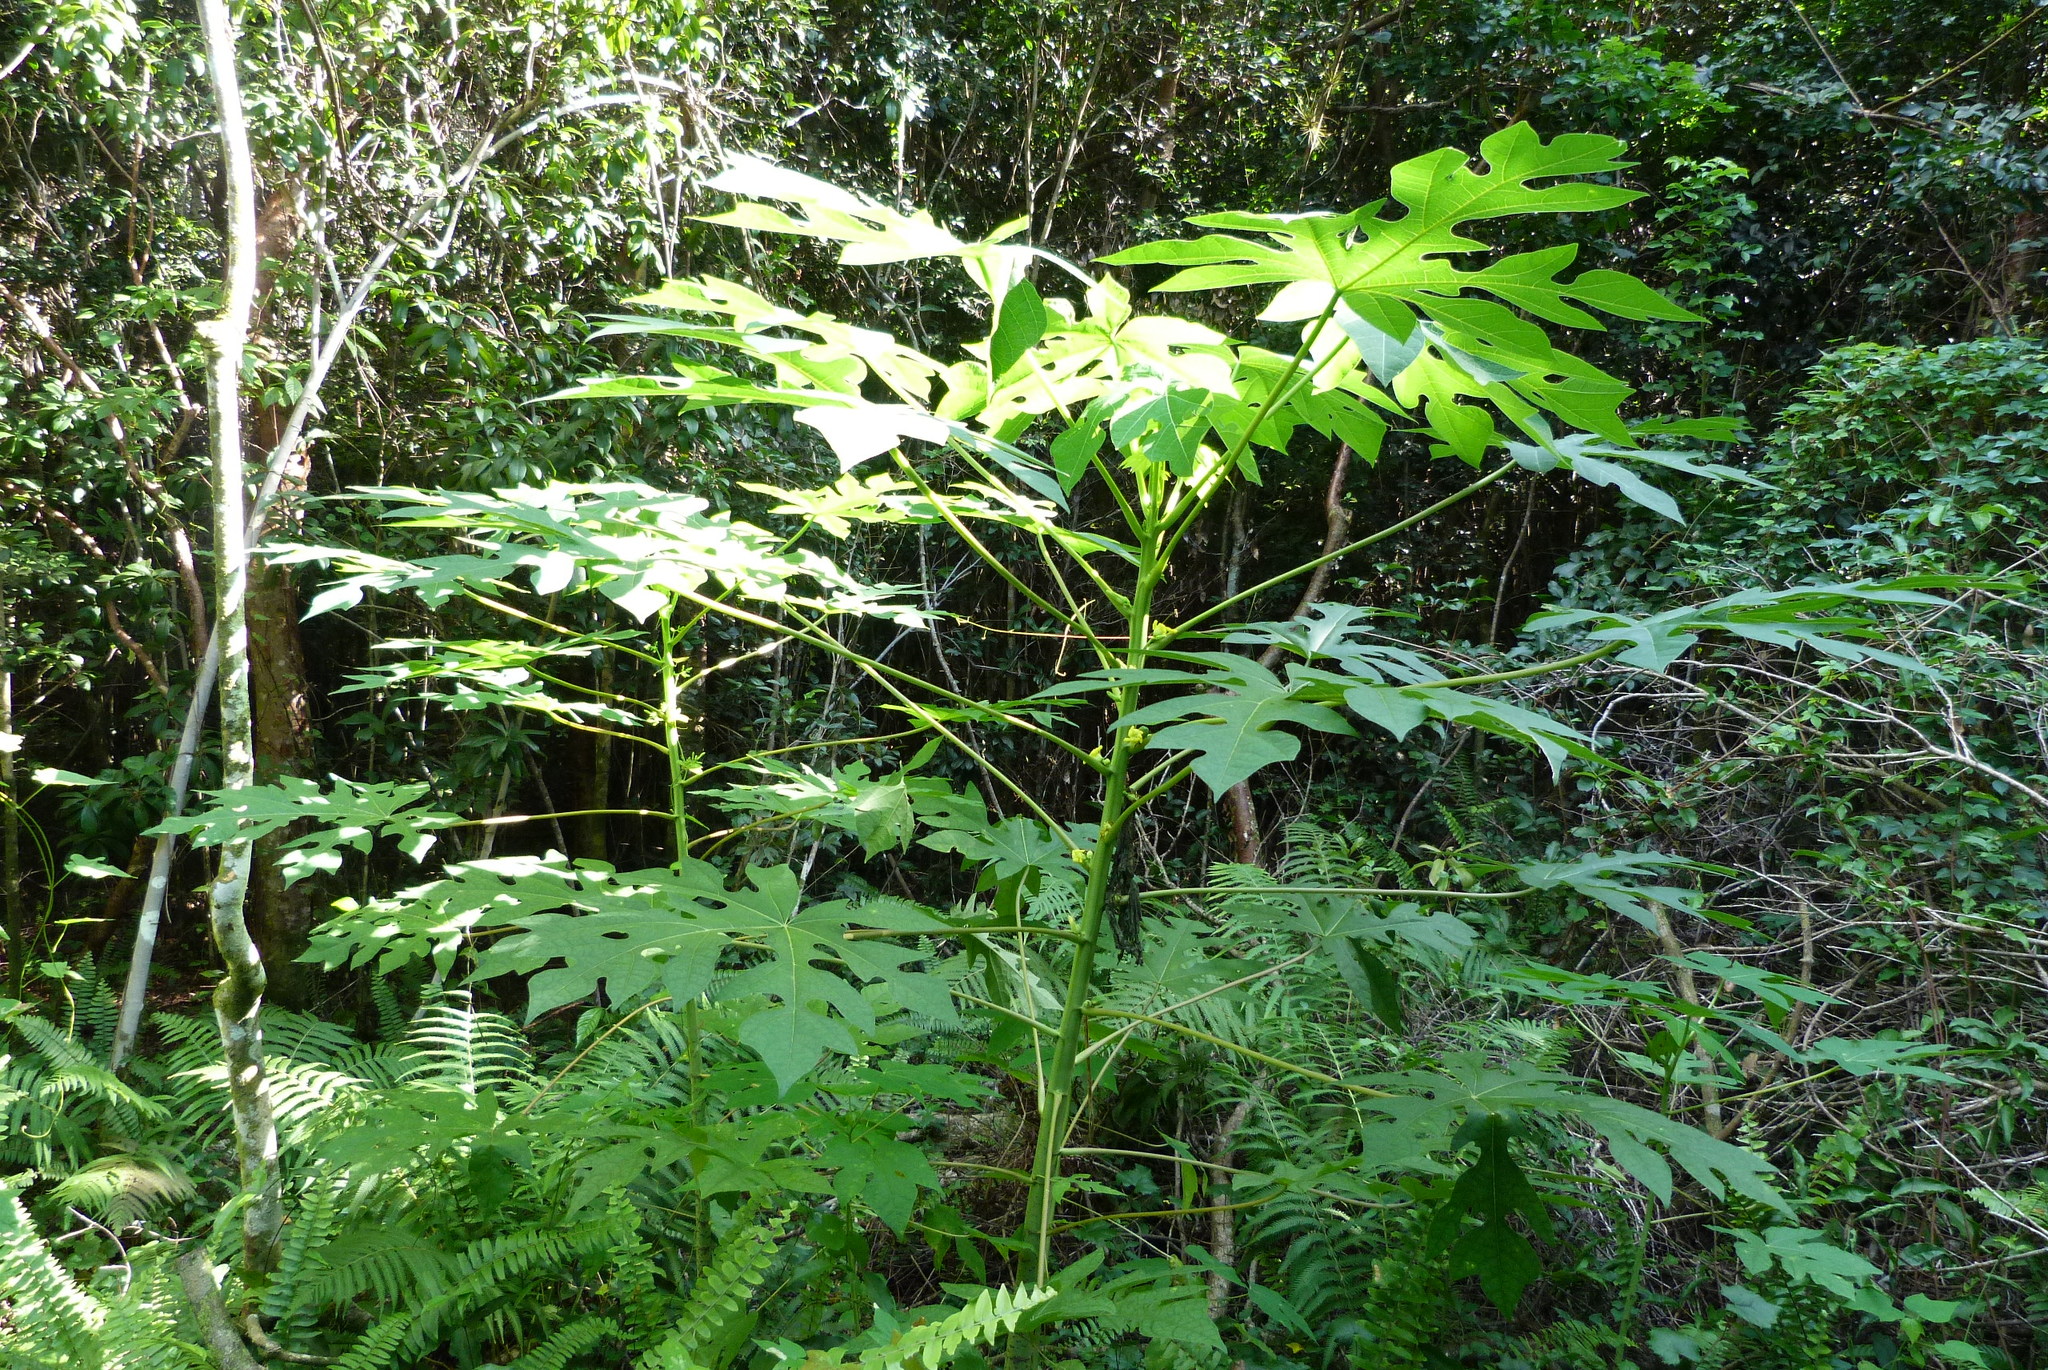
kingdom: Plantae
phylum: Tracheophyta
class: Magnoliopsida
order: Brassicales
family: Caricaceae
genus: Carica
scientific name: Carica papaya
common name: Papaya
